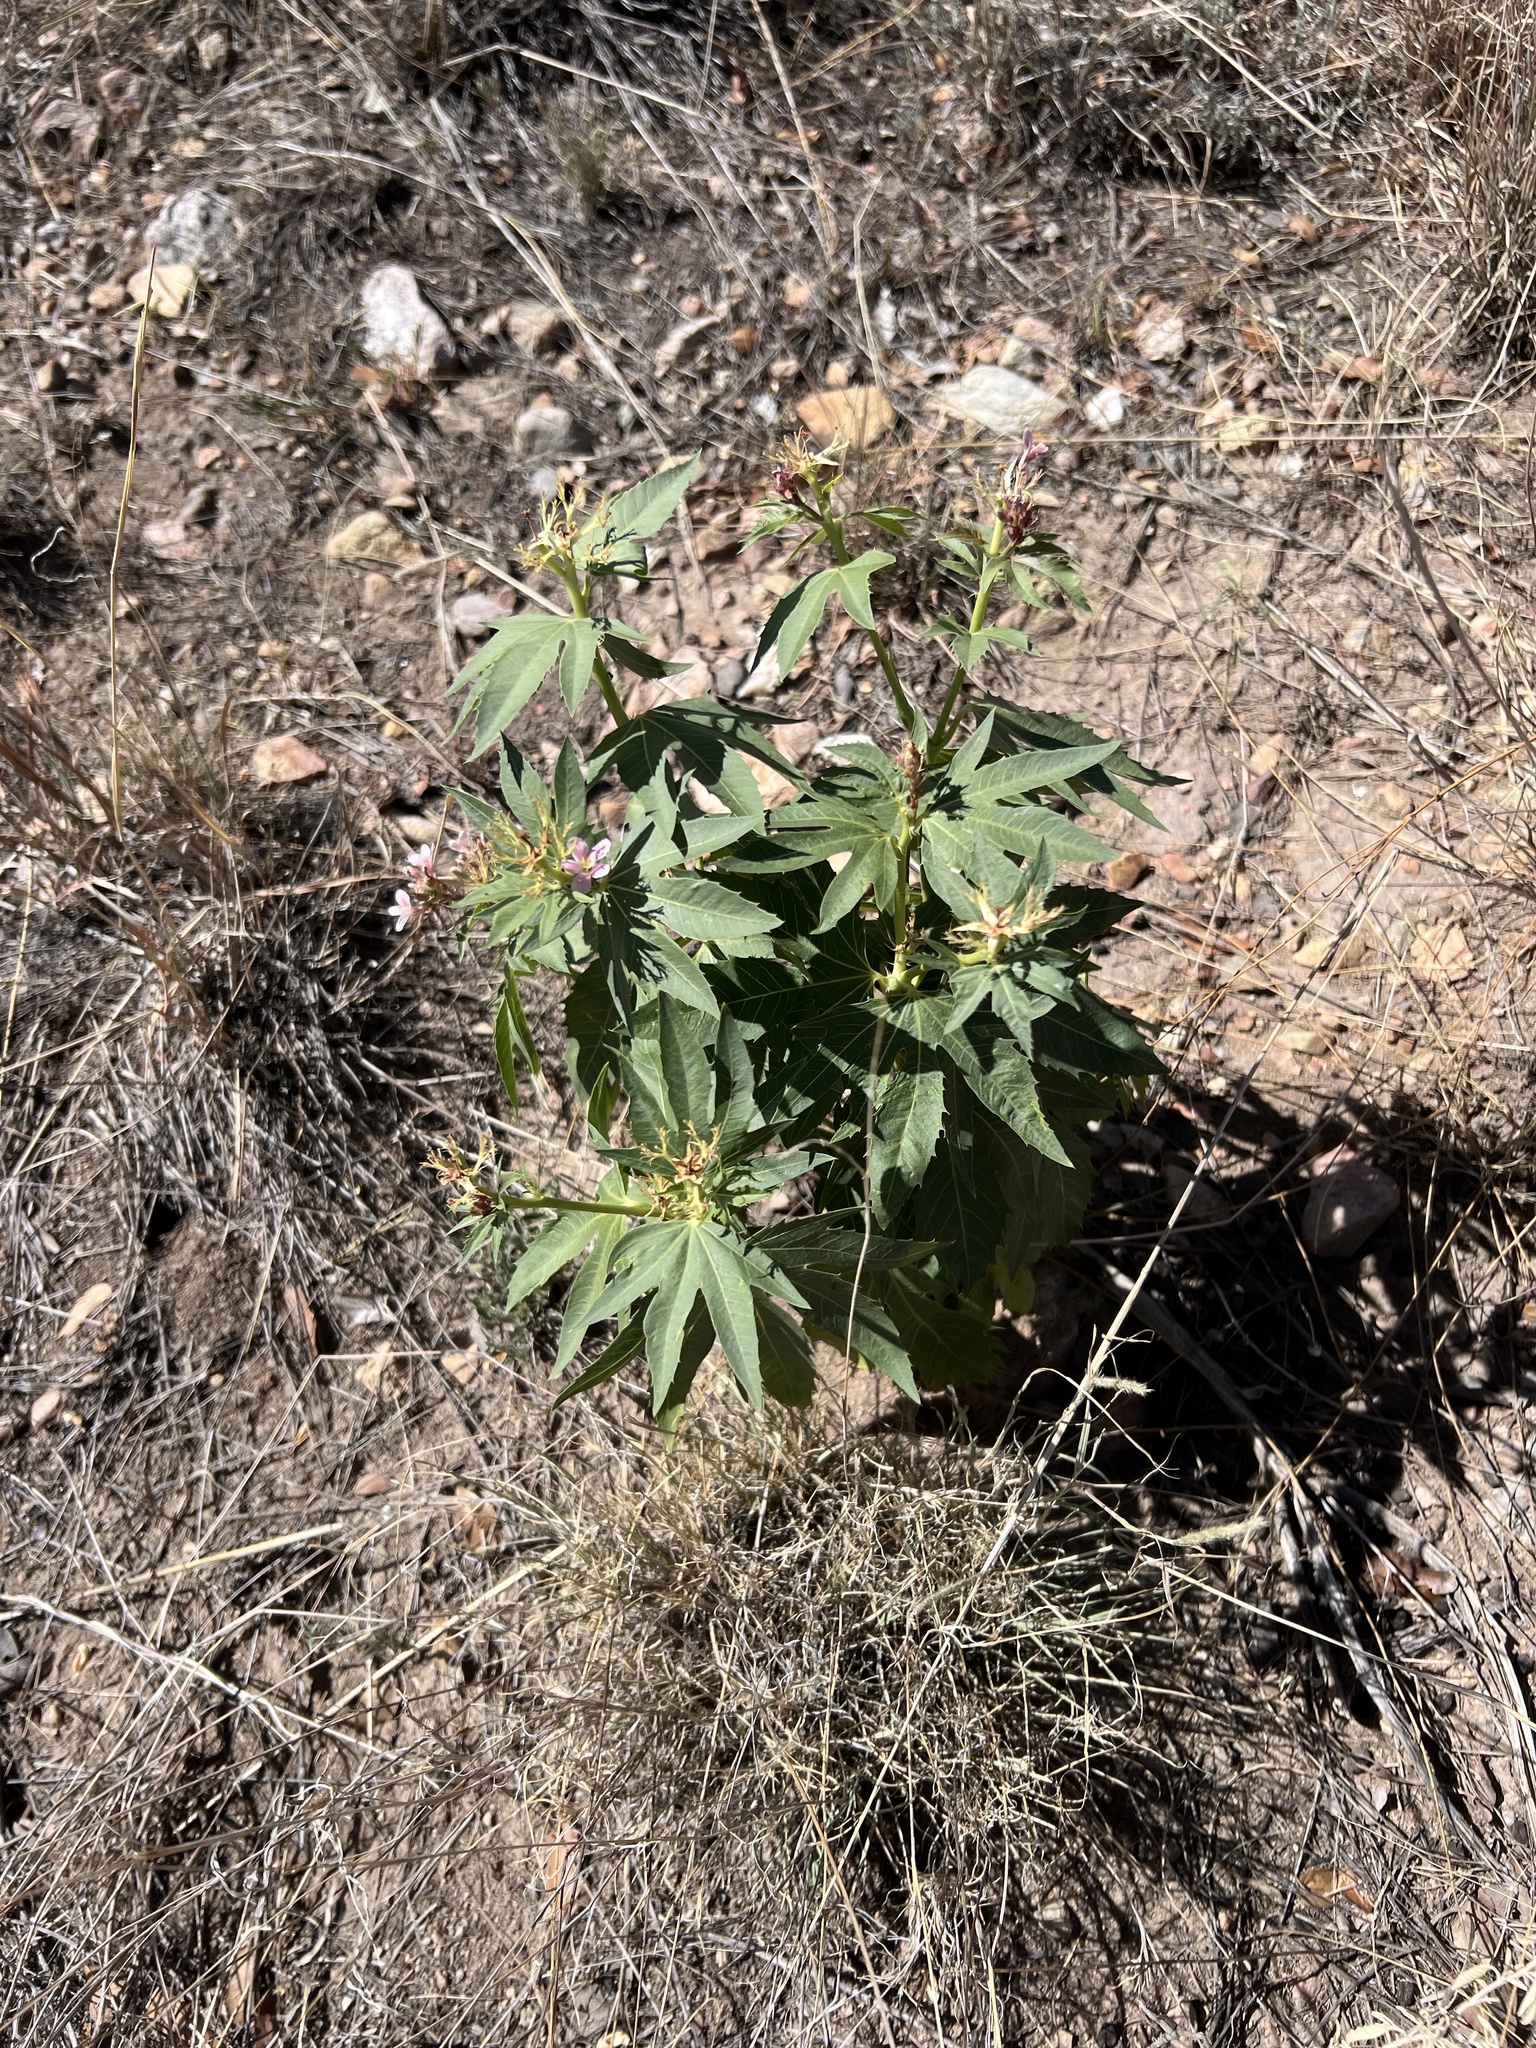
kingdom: Plantae
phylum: Tracheophyta
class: Magnoliopsida
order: Malpighiales
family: Euphorbiaceae
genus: Jatropha
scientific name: Jatropha macrorhiza
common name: Ragged nettlespurge
